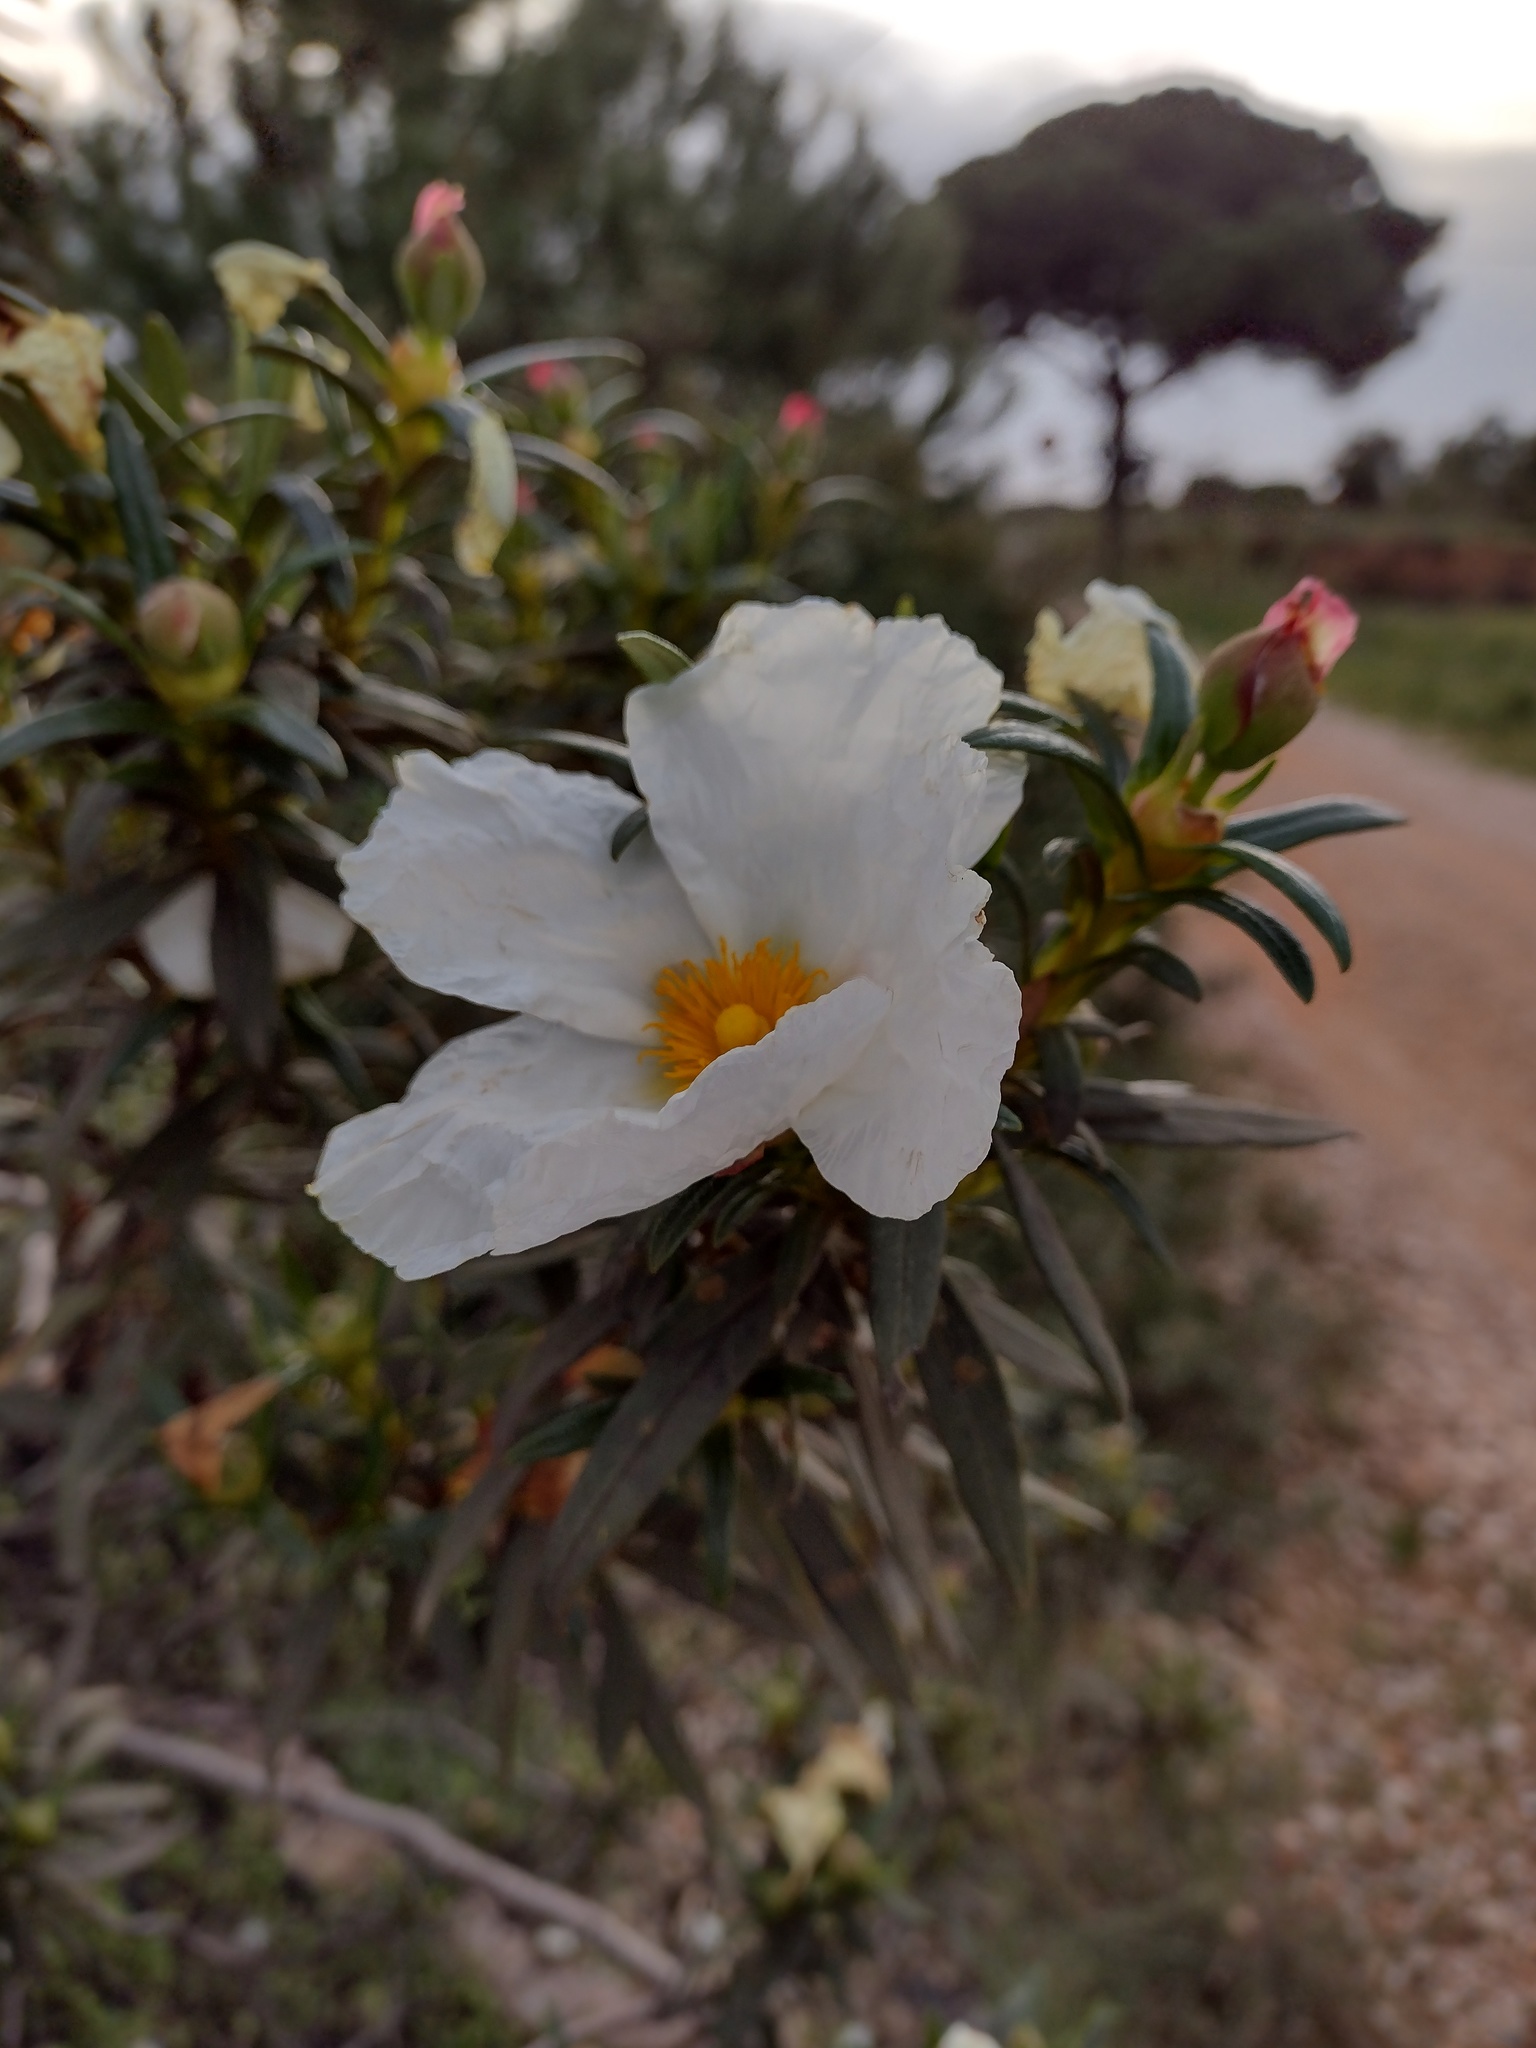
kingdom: Plantae
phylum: Tracheophyta
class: Magnoliopsida
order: Malvales
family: Cistaceae
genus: Cistus
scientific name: Cistus ladanifer
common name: Common gum cistus
